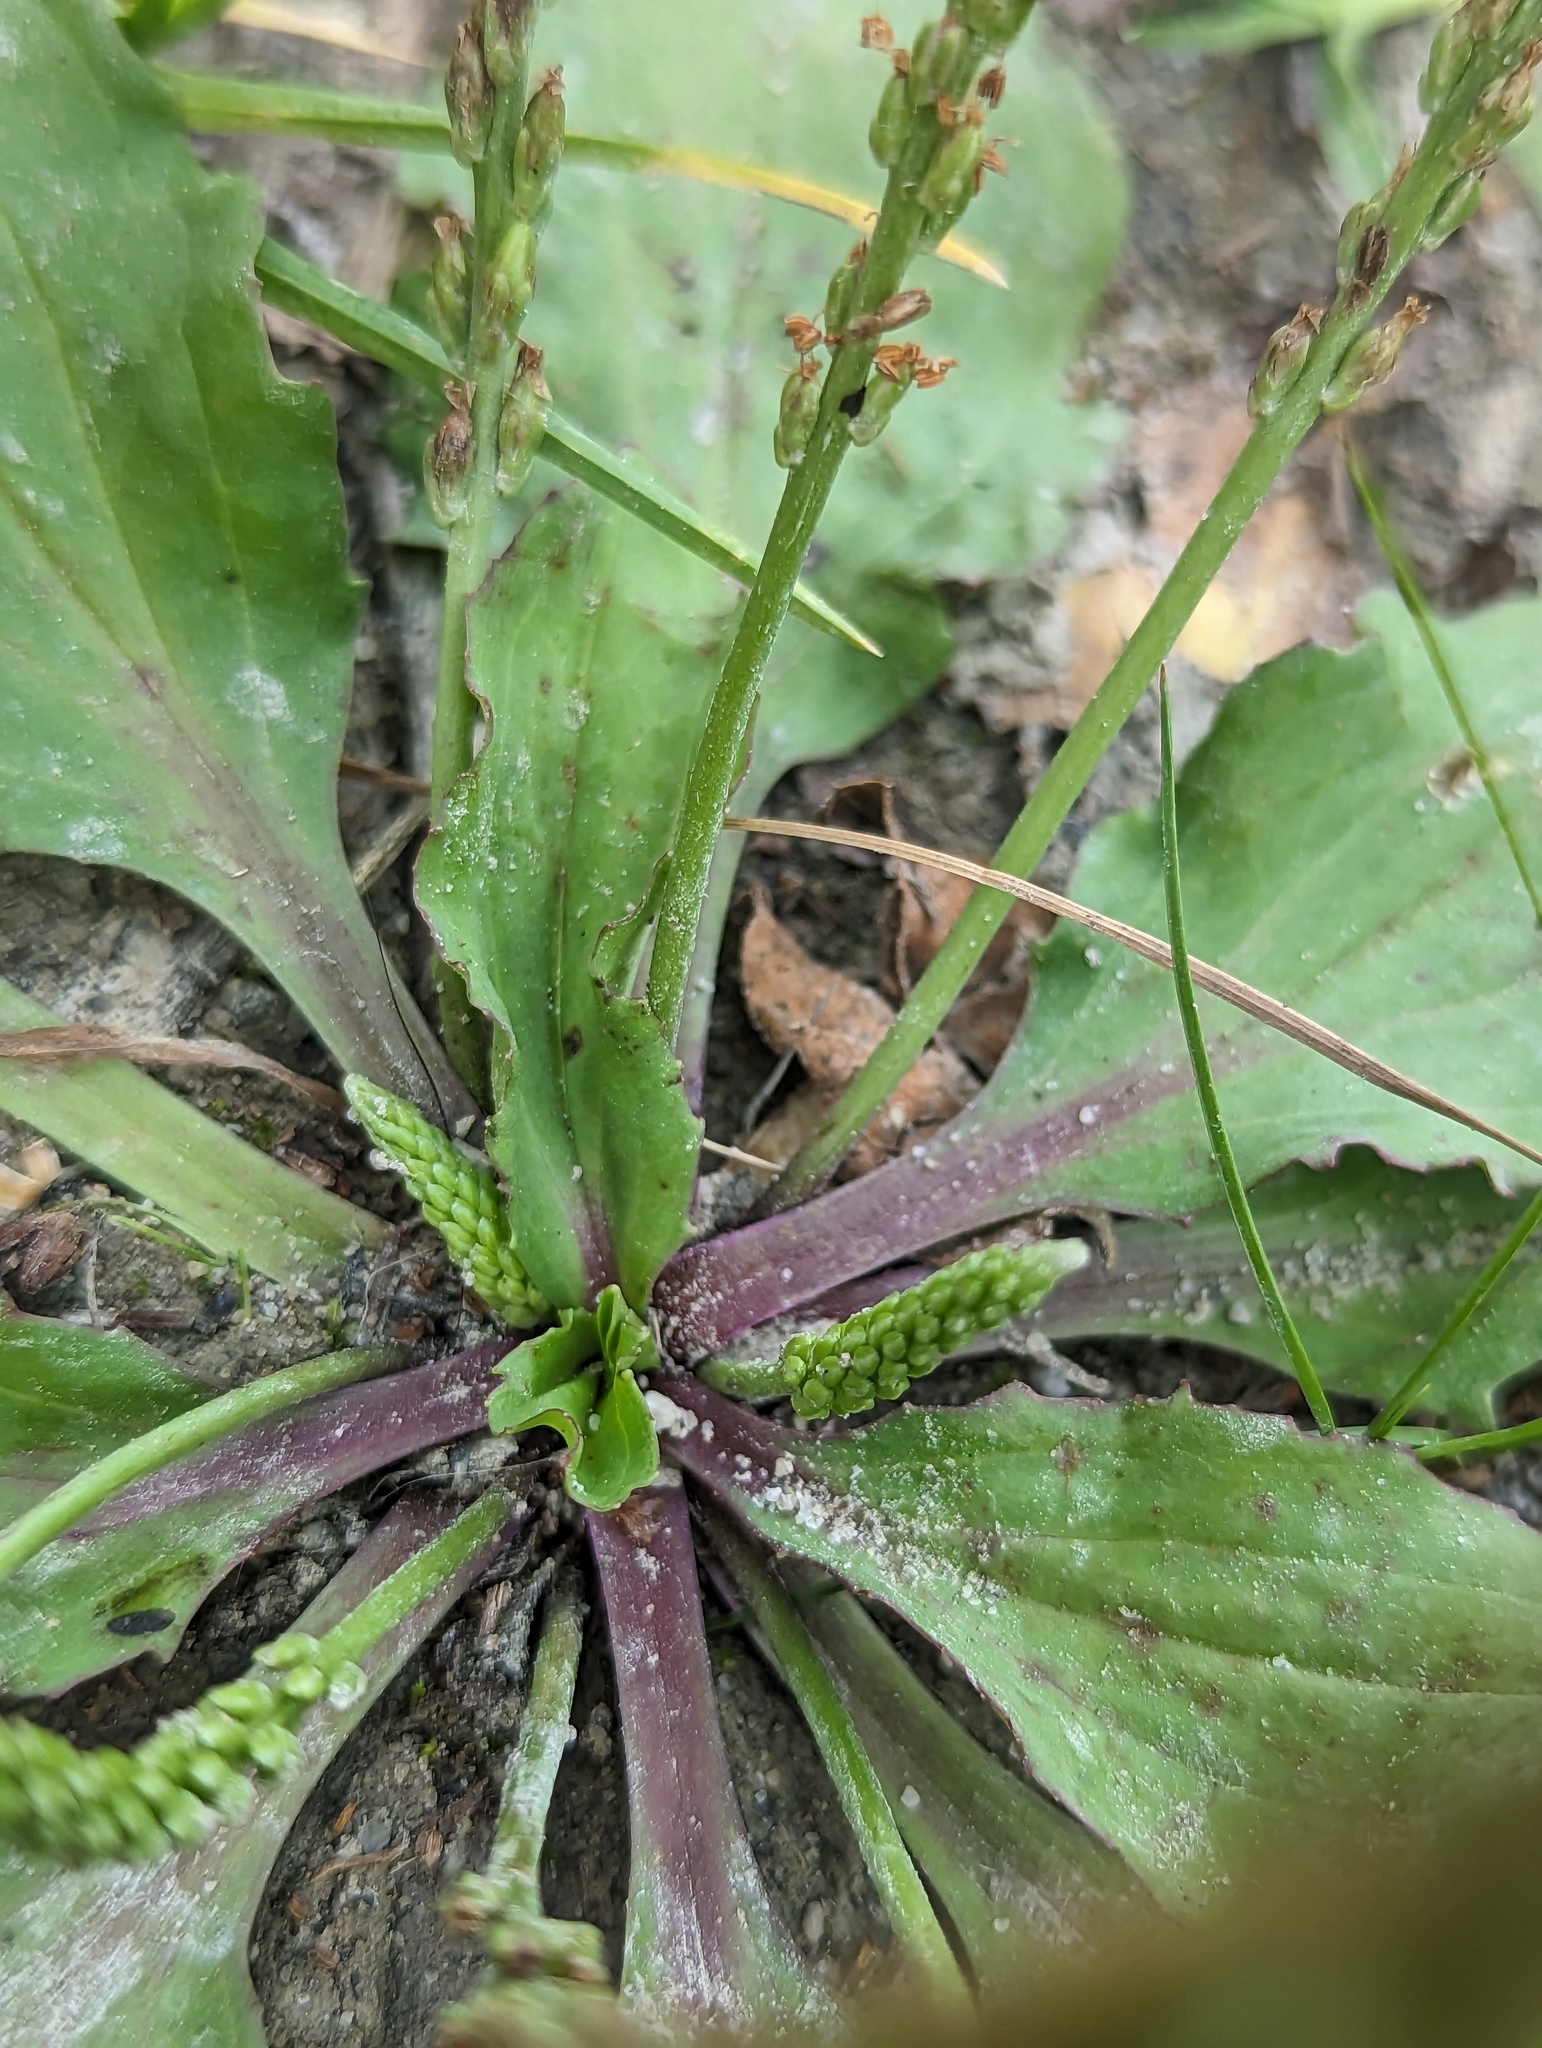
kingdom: Plantae
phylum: Tracheophyta
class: Magnoliopsida
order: Lamiales
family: Plantaginaceae
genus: Plantago
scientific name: Plantago rugelii
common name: American plantain
